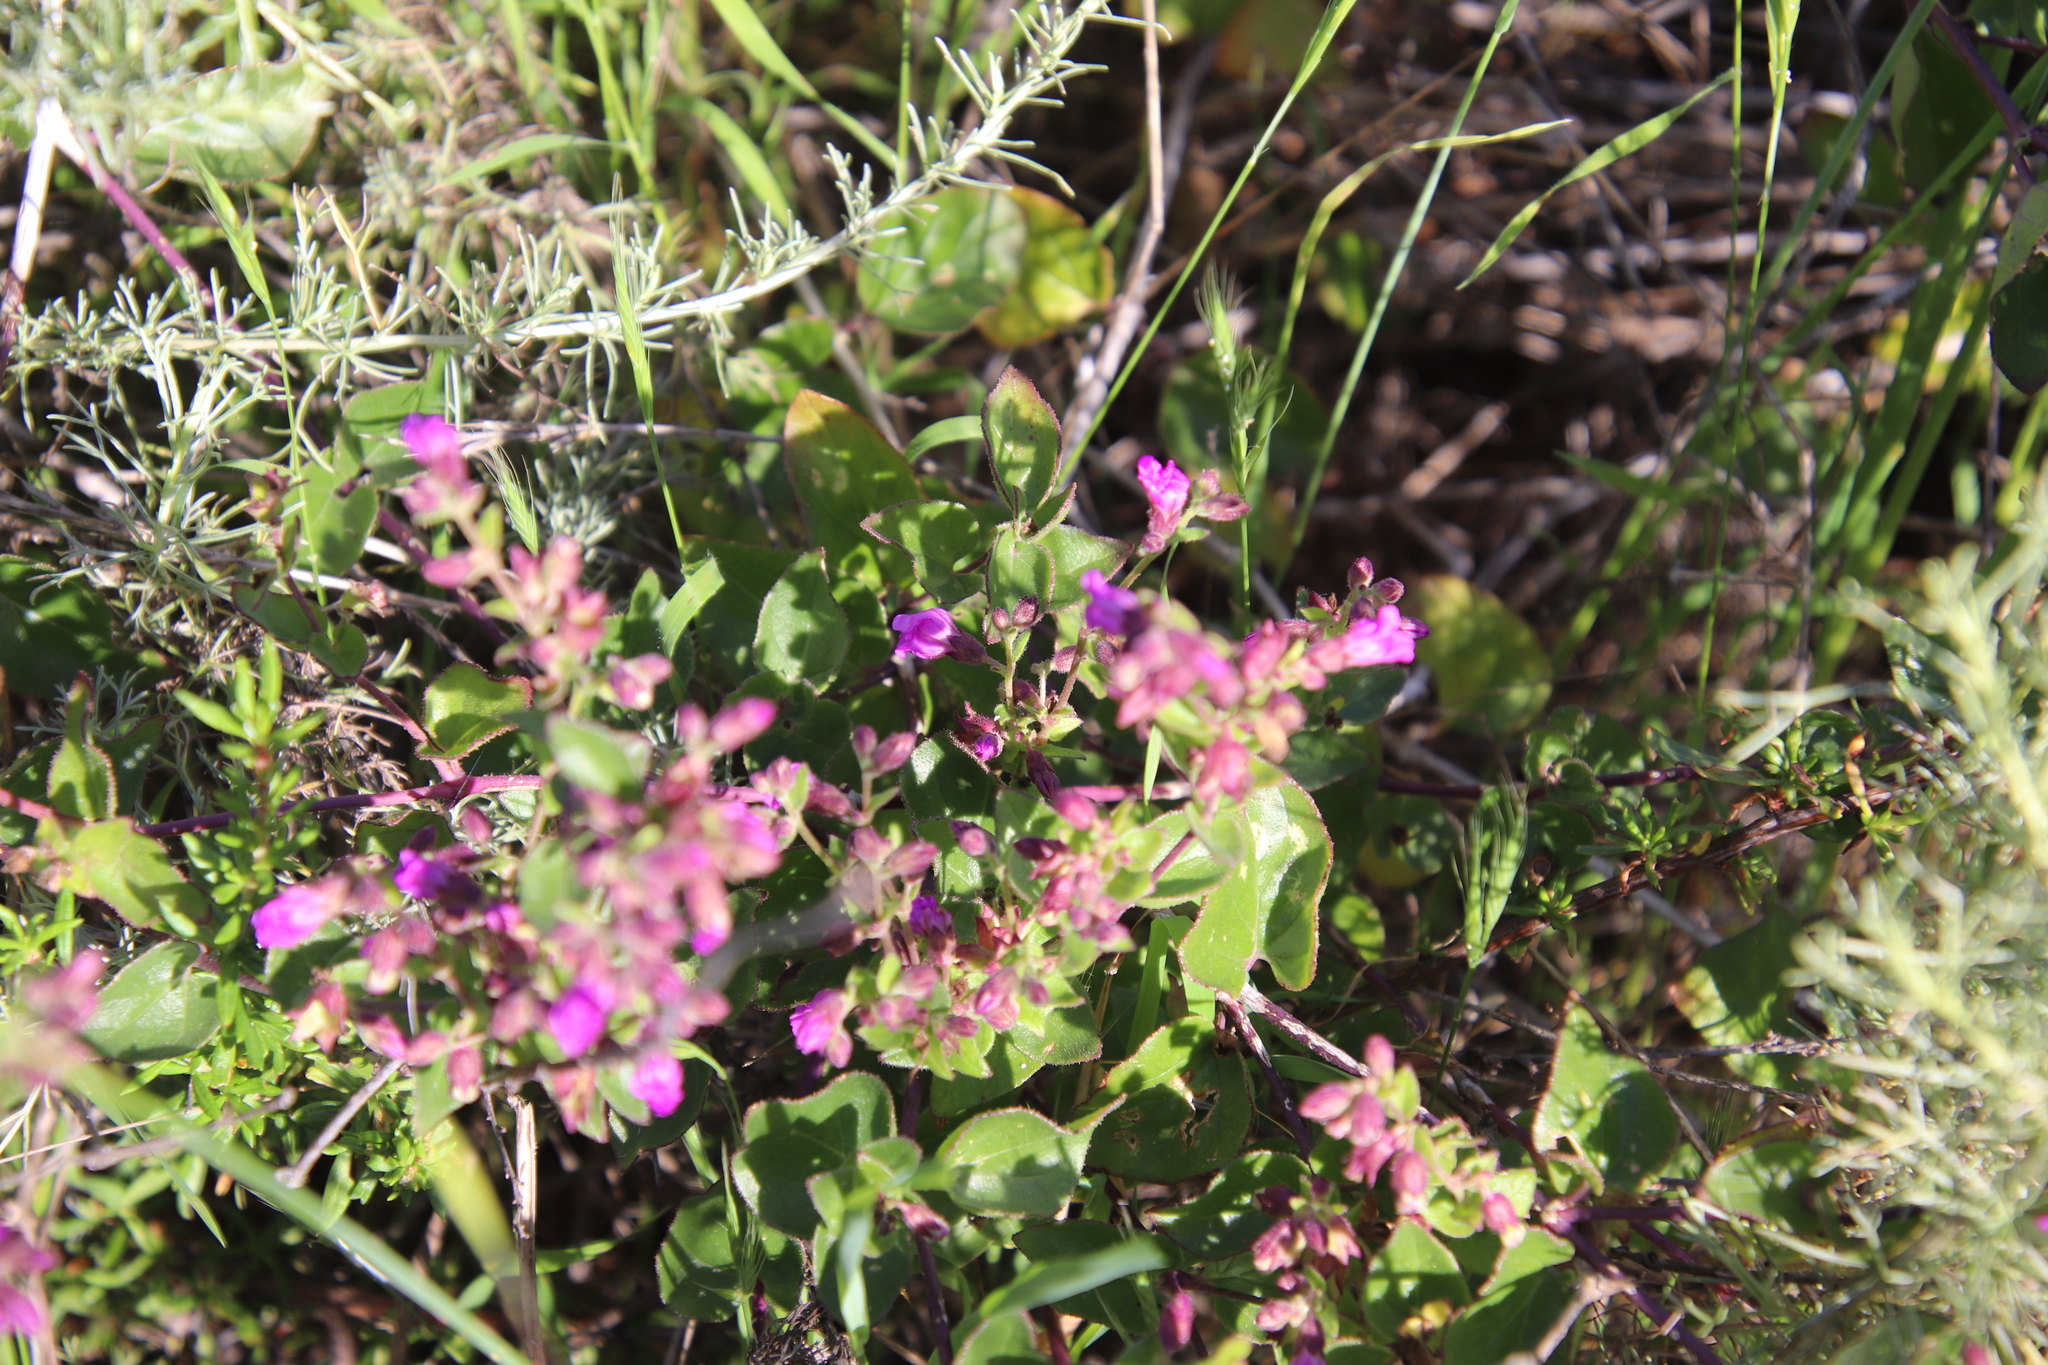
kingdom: Plantae
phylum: Tracheophyta
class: Magnoliopsida
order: Caryophyllales
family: Nyctaginaceae
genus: Mirabilis
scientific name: Mirabilis laevis
